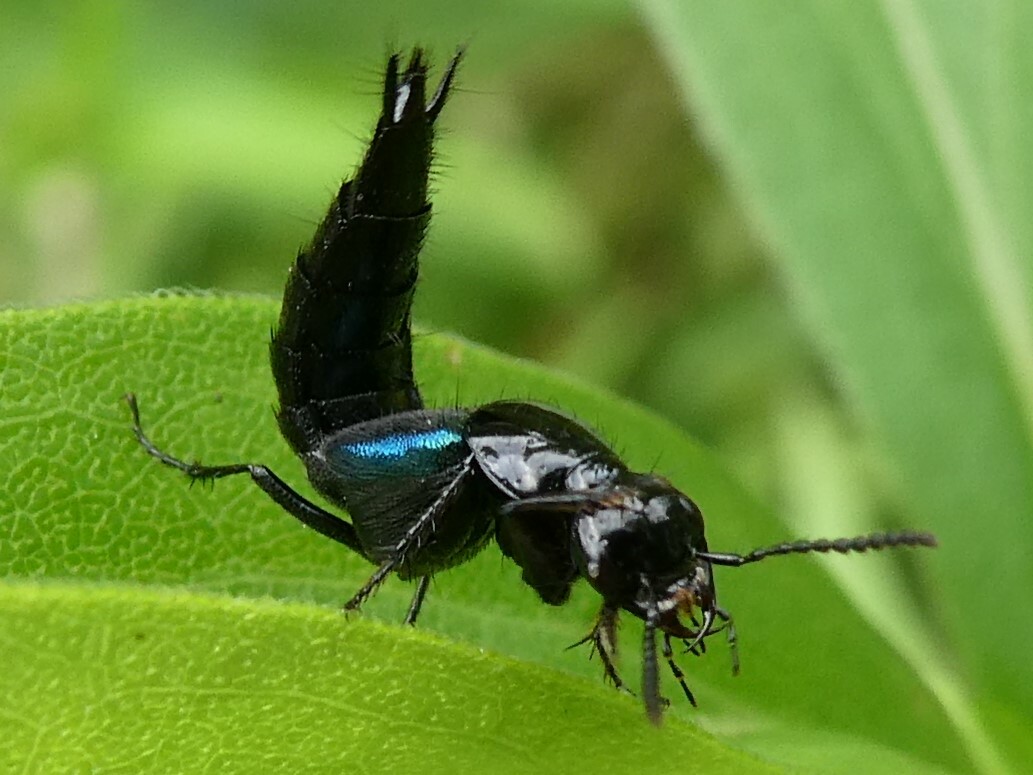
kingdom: Animalia
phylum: Arthropoda
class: Insecta
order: Coleoptera
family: Staphylinidae
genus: Philonthus
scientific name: Philonthus caeruleipennis
